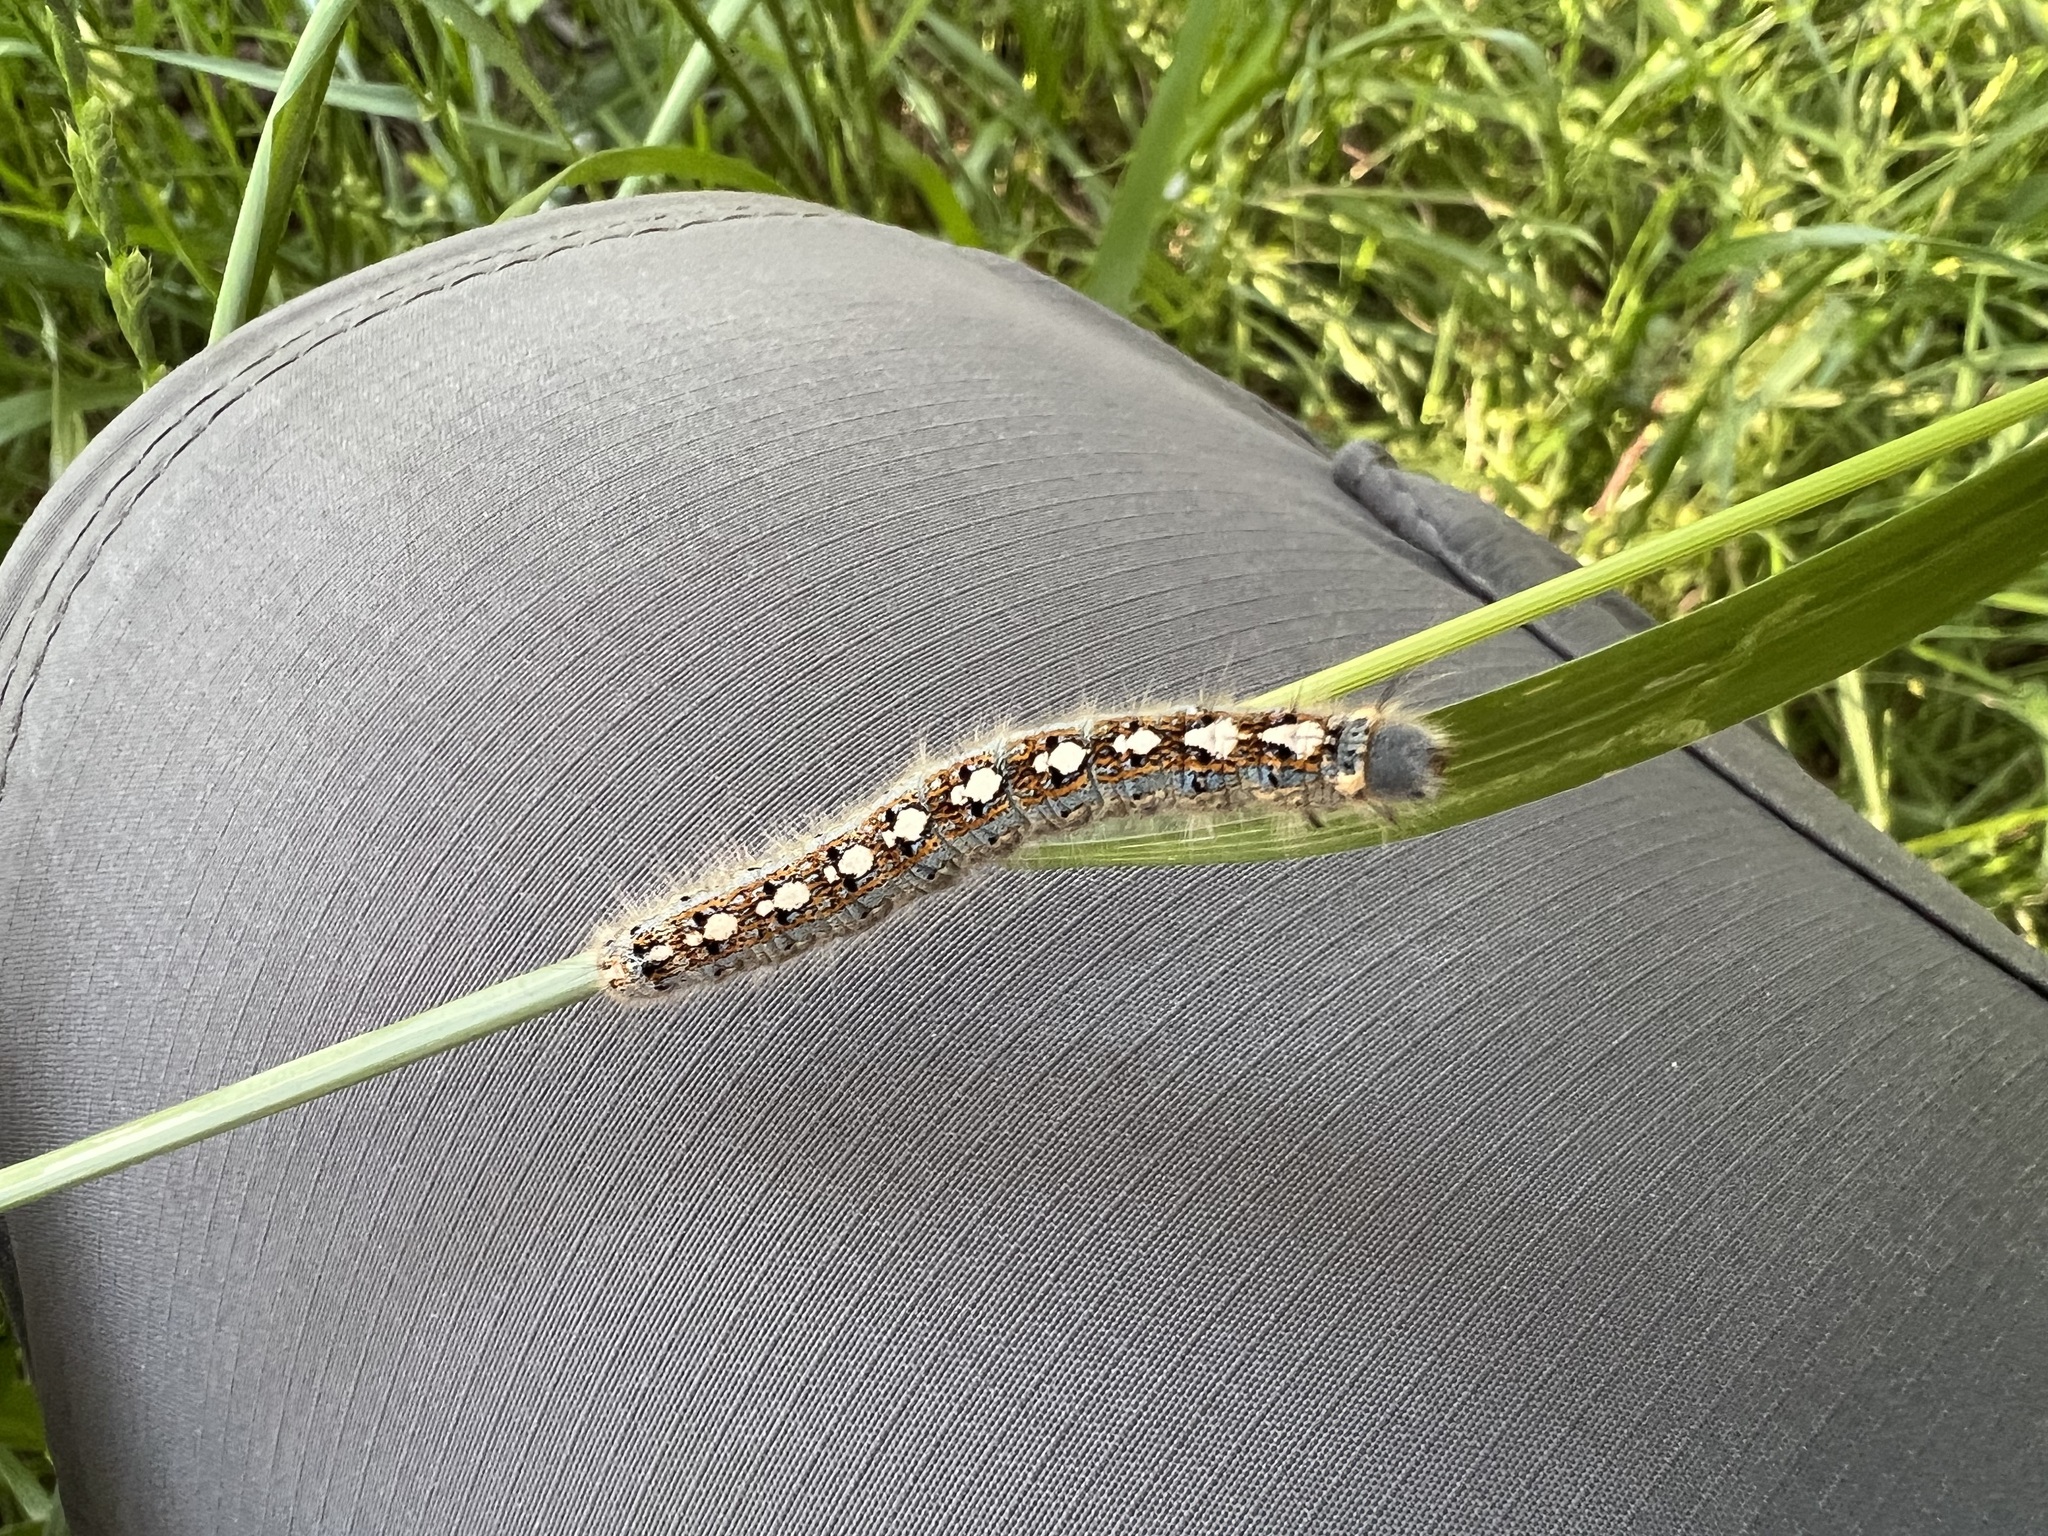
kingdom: Animalia
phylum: Arthropoda
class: Insecta
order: Lepidoptera
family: Lasiocampidae
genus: Malacosoma
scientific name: Malacosoma disstria
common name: Forest tent caterpillar
